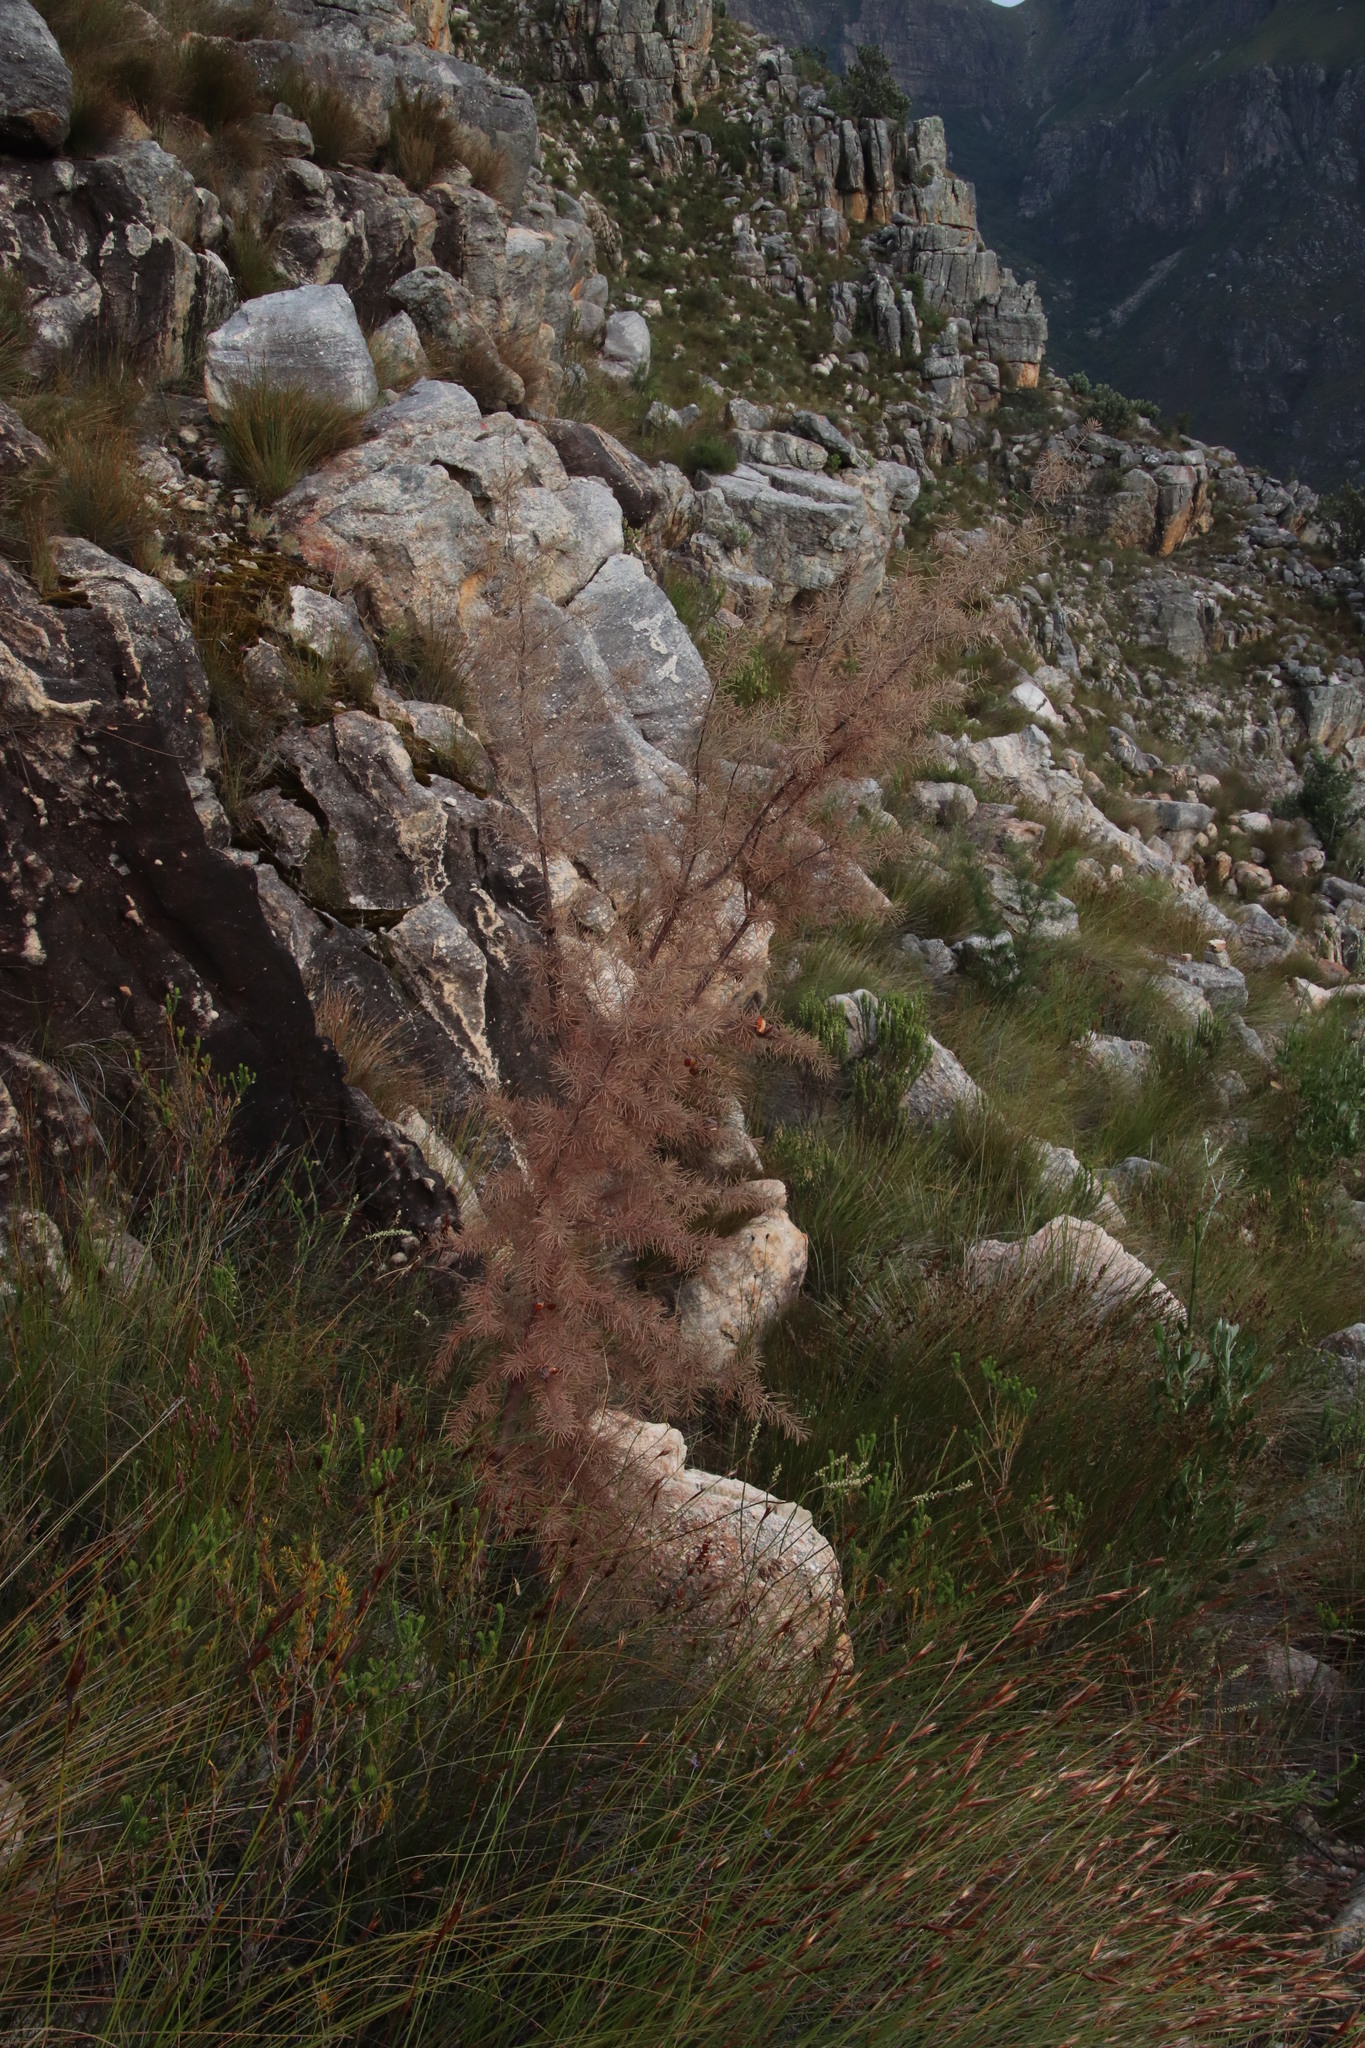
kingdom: Plantae
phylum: Tracheophyta
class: Magnoliopsida
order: Proteales
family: Proteaceae
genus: Hakea
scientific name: Hakea sericea
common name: Needle bush
